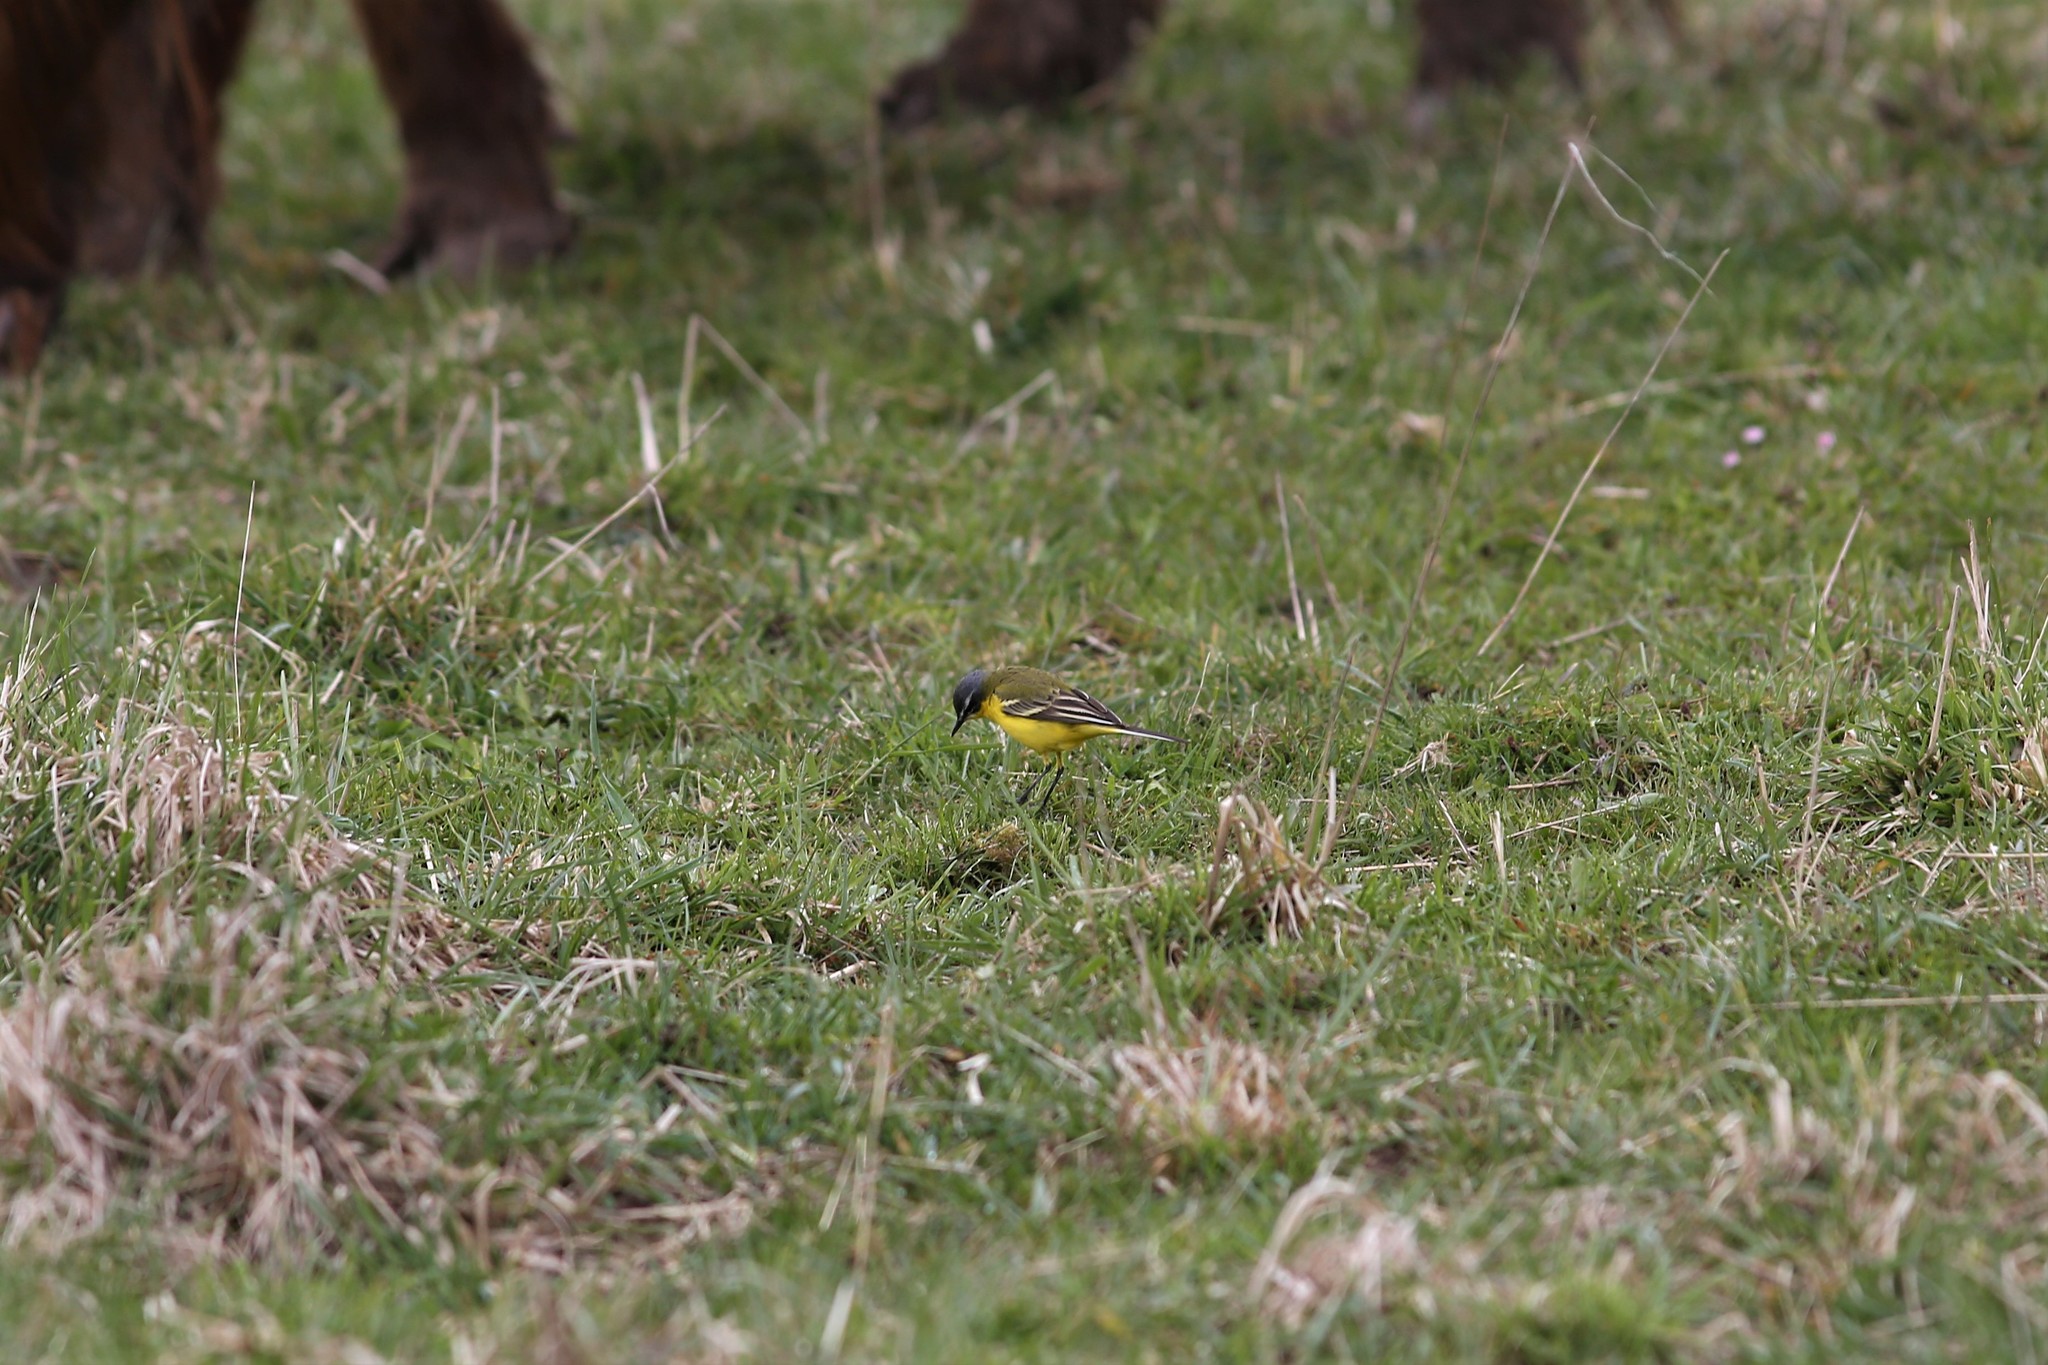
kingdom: Animalia
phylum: Chordata
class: Aves
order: Passeriformes
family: Motacillidae
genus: Motacilla
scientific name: Motacilla flava
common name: Western yellow wagtail
